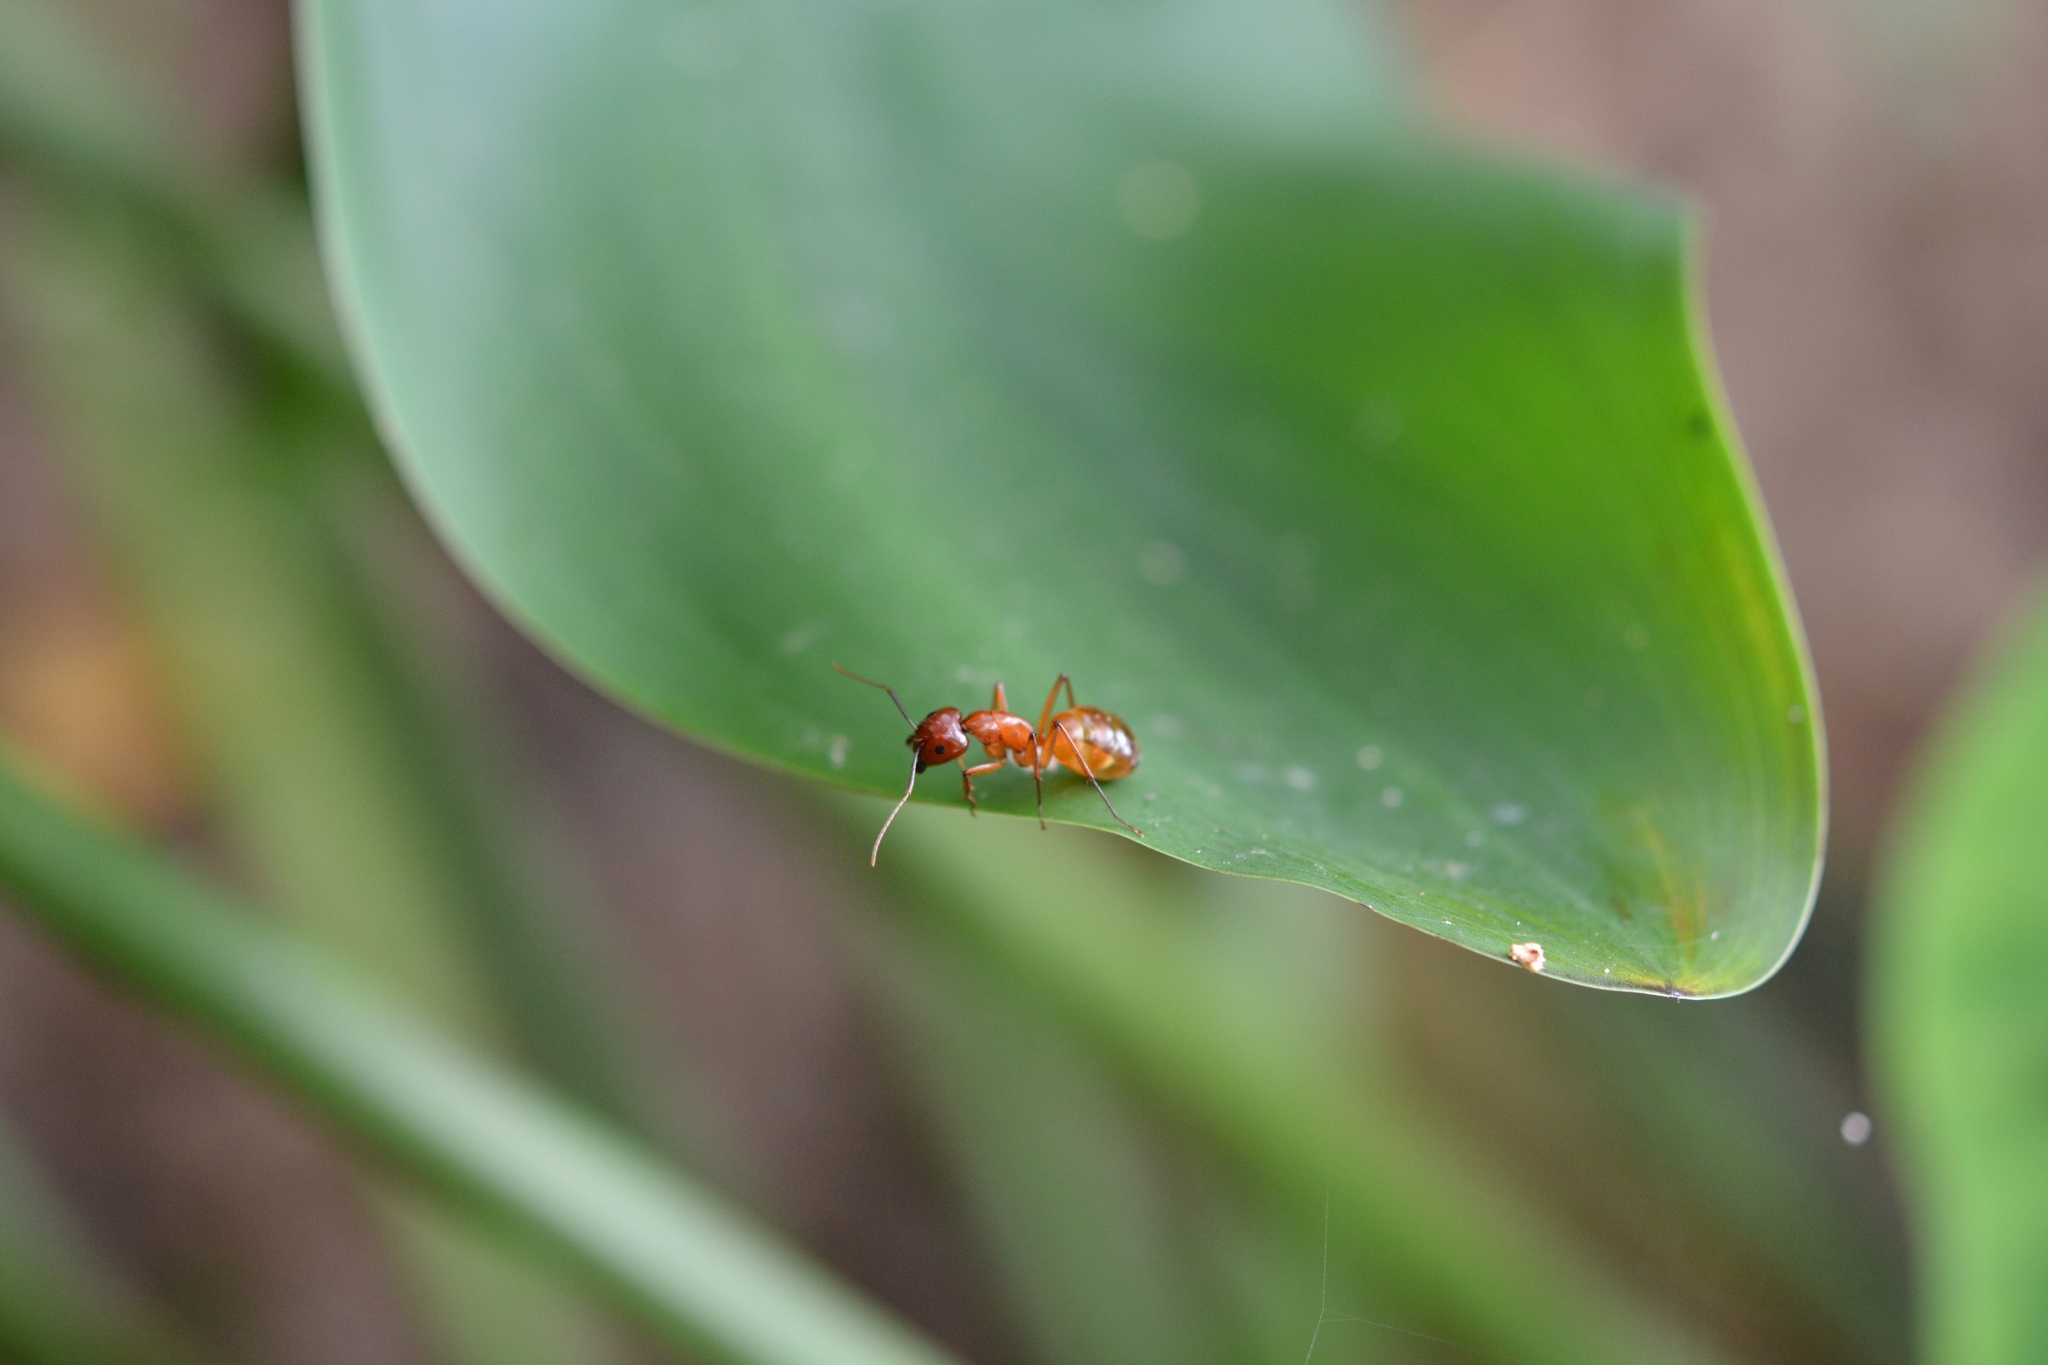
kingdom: Animalia
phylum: Arthropoda
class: Insecta
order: Hymenoptera
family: Formicidae
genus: Camponotus
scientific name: Camponotus castaneus
